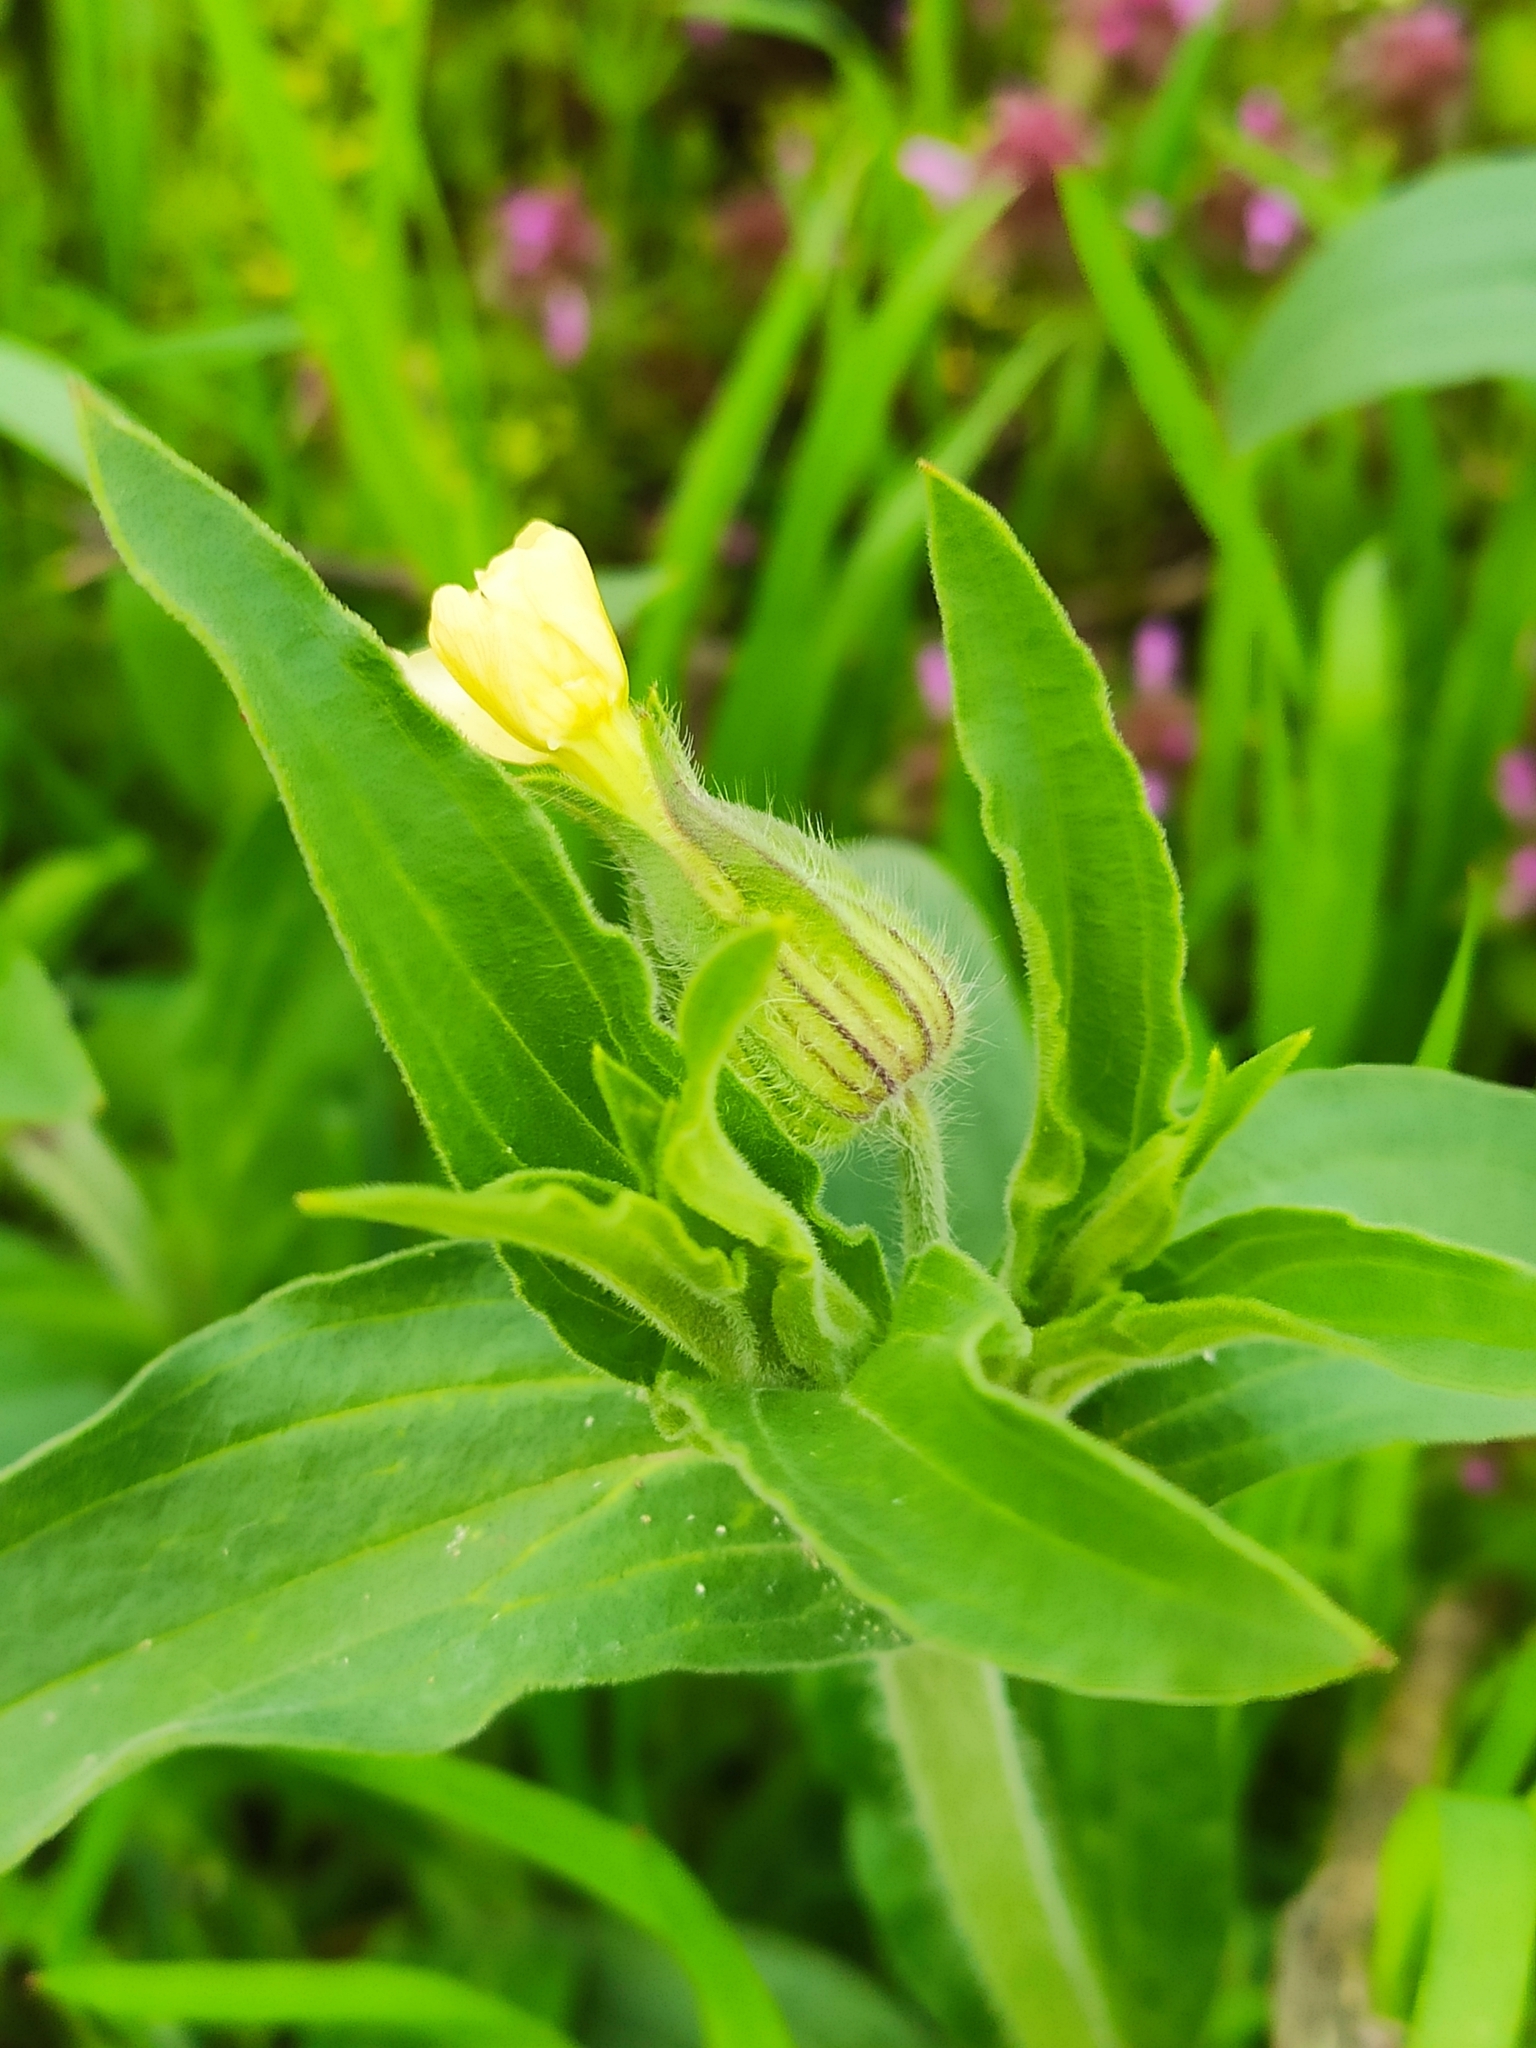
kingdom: Plantae
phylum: Tracheophyta
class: Magnoliopsida
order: Caryophyllales
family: Caryophyllaceae
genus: Silene
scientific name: Silene latifolia
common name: White campion
